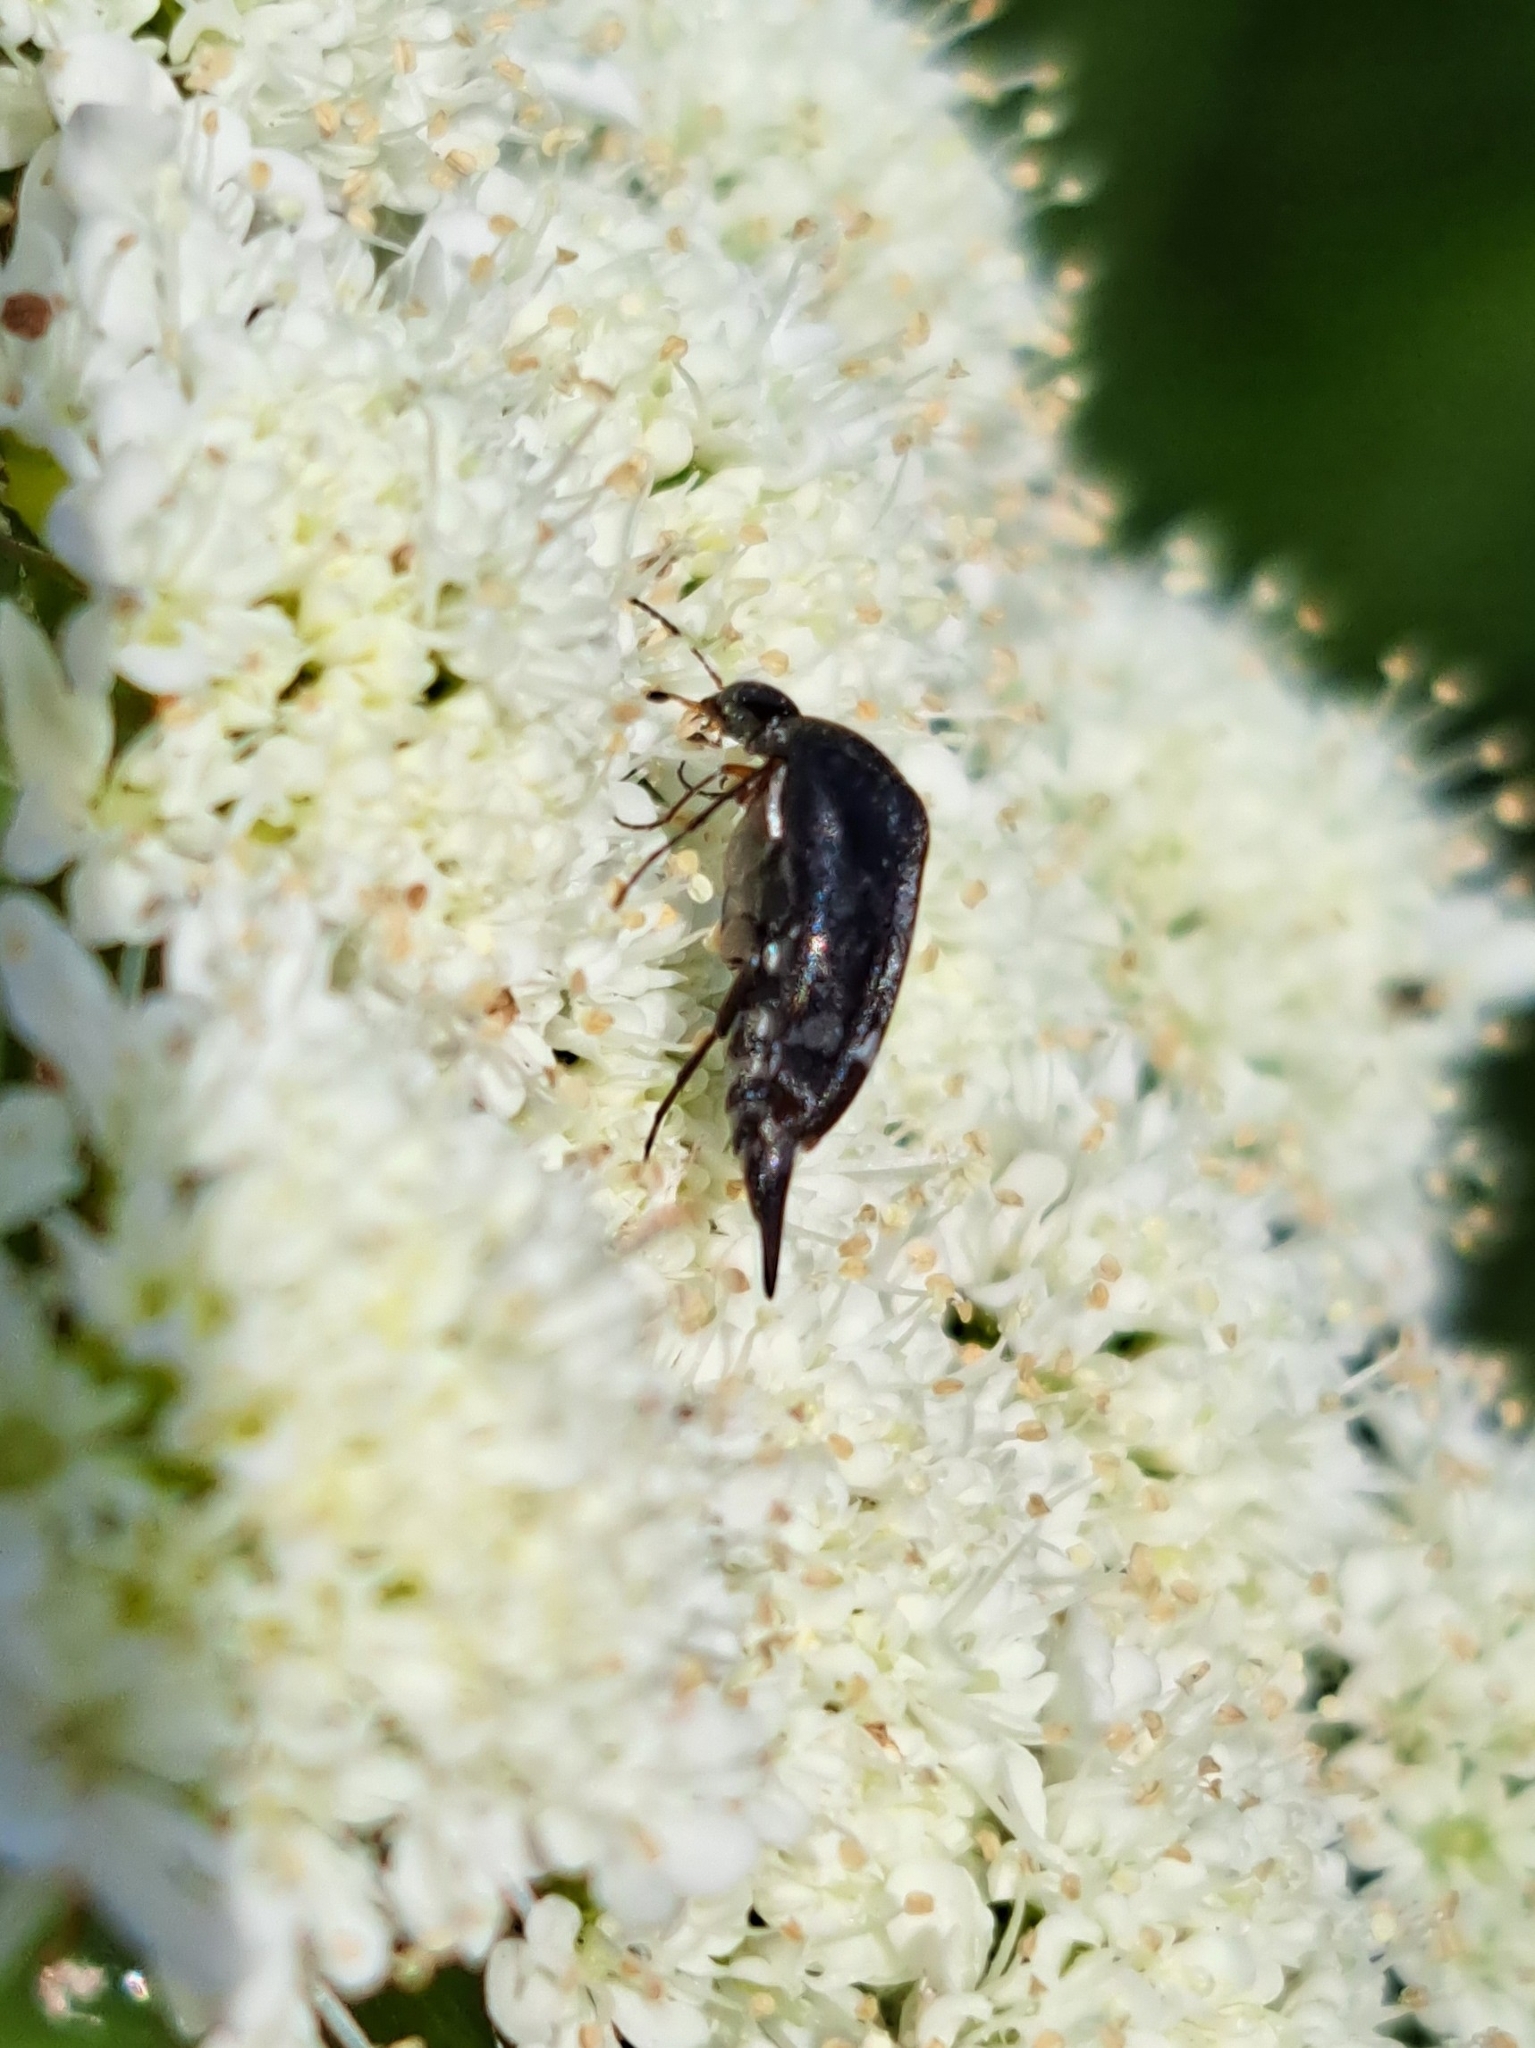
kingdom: Animalia
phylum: Arthropoda
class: Insecta
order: Coleoptera
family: Mordellidae
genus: Mordella
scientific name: Mordella
